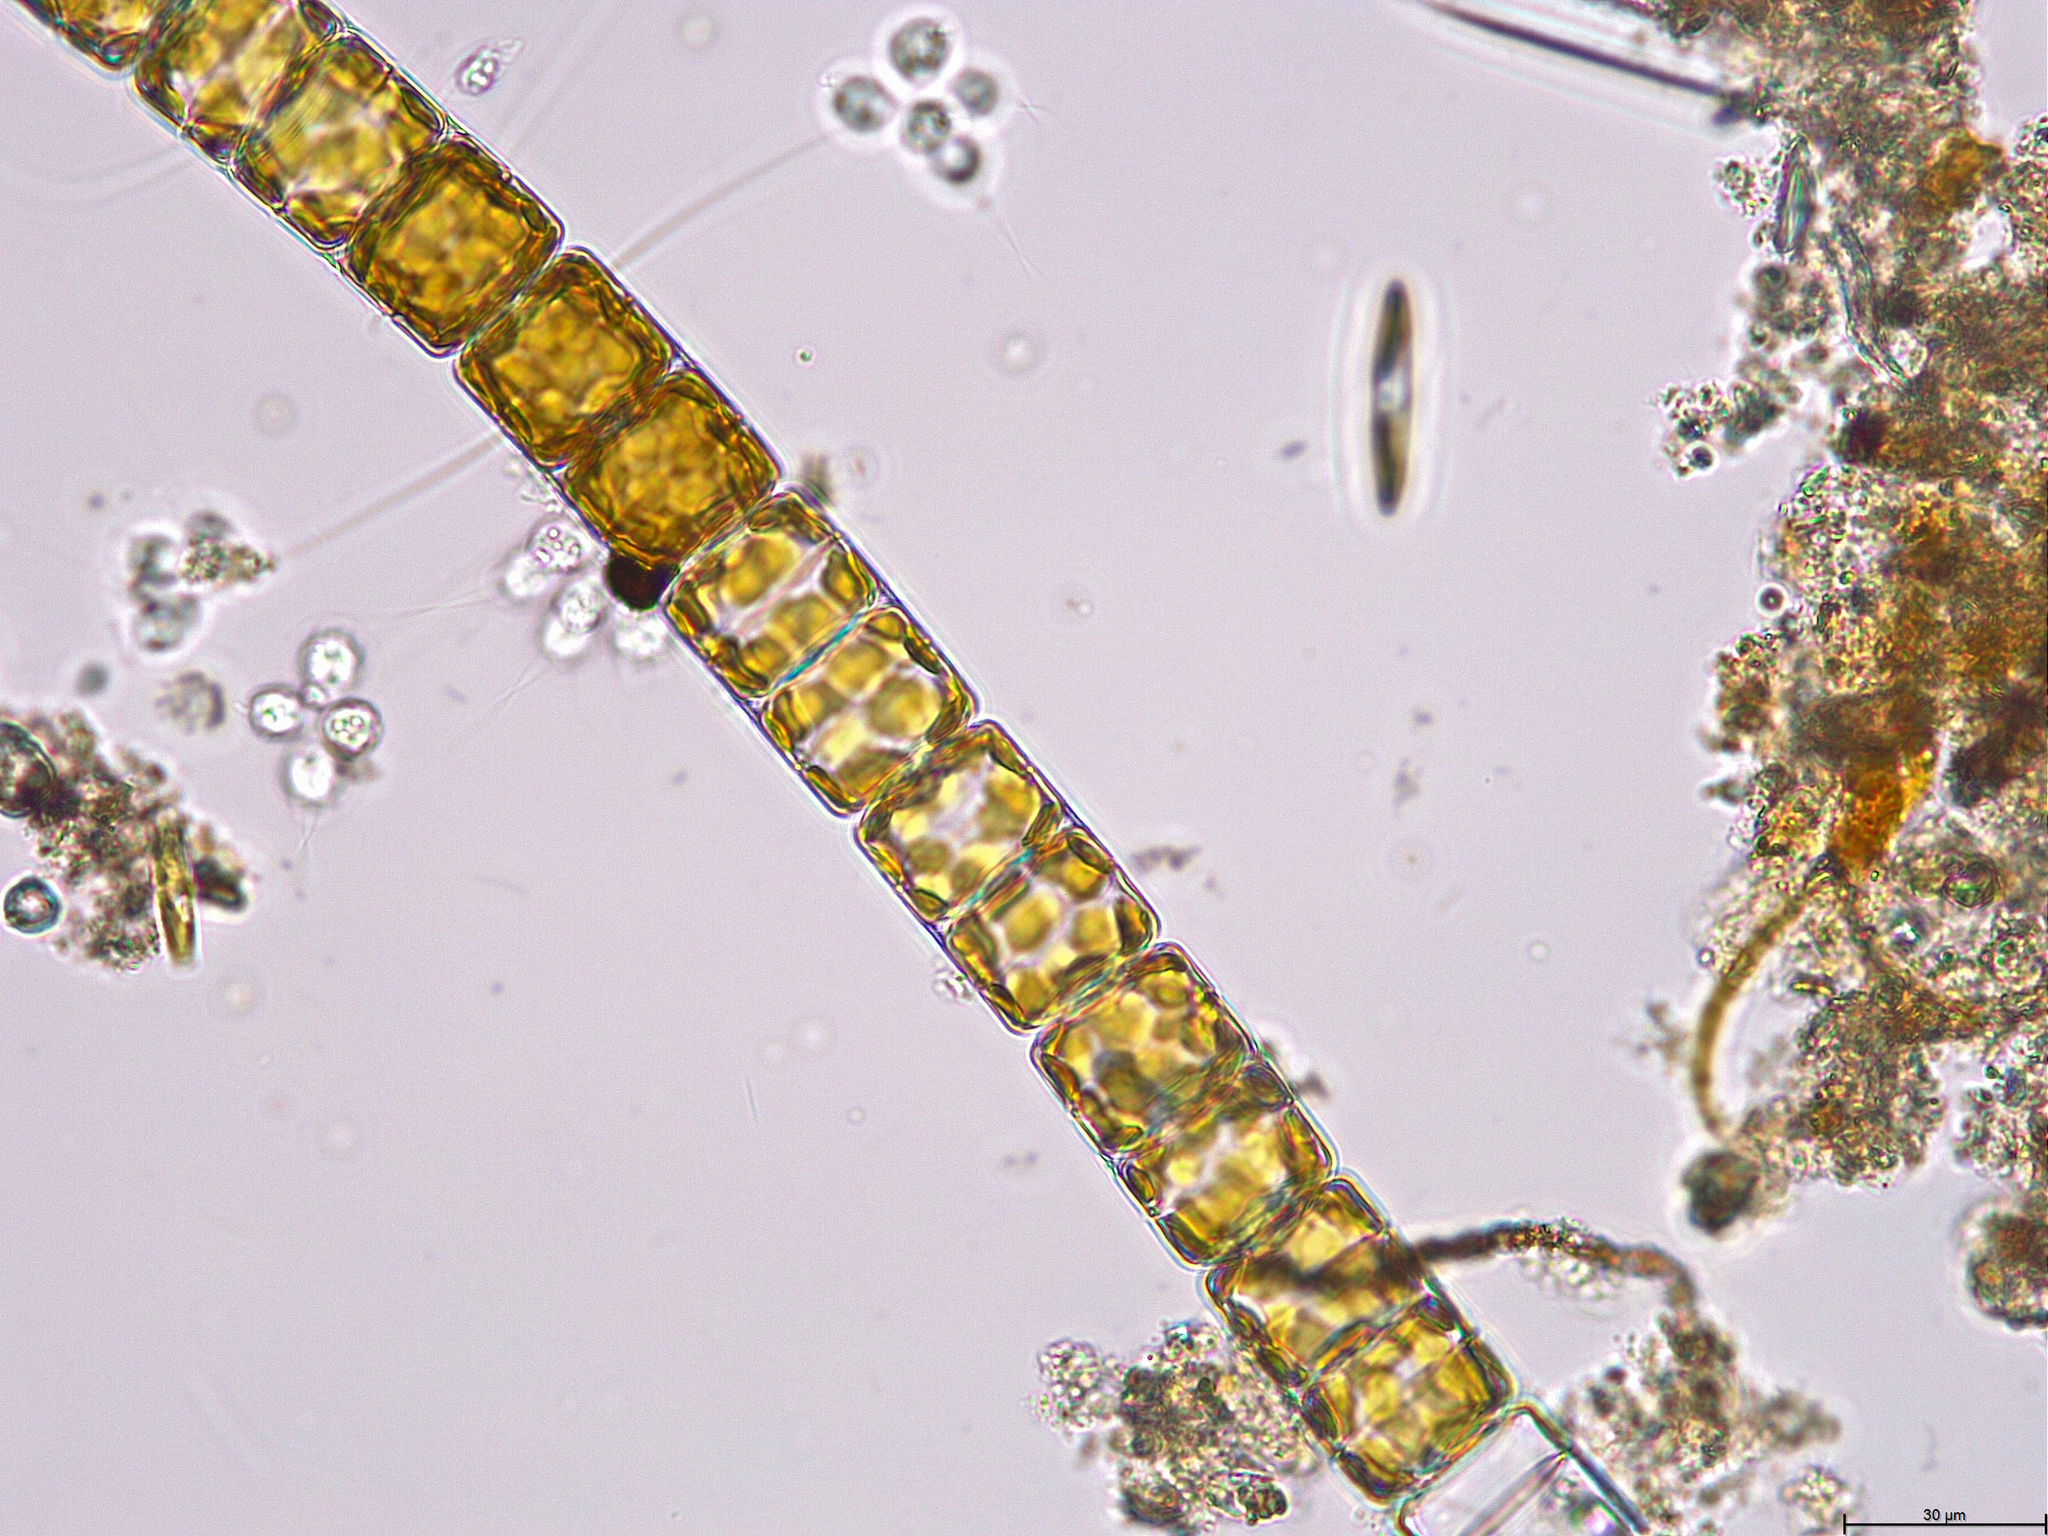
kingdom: Chromista
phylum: Ochrophyta
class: Bacillariophyceae
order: Melosirales
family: Melosiraceae
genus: Melosira
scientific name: Melosira varians
